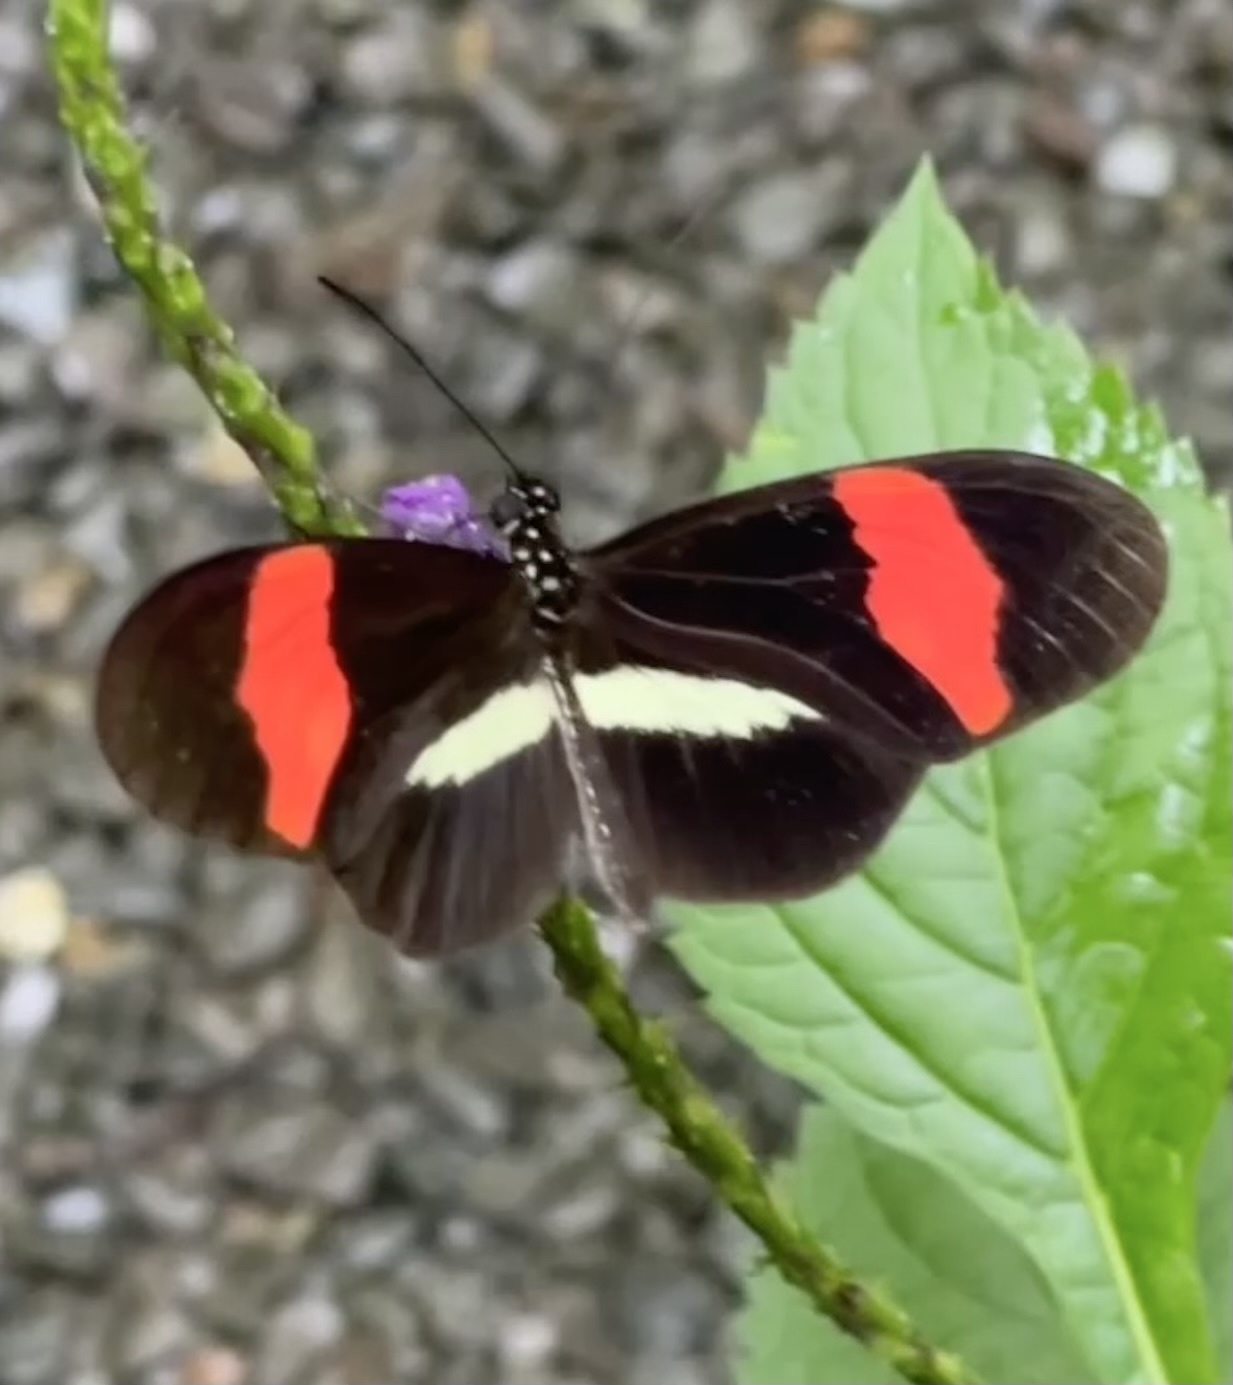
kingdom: Animalia
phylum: Arthropoda
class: Insecta
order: Lepidoptera
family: Nymphalidae
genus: Tirumala
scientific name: Tirumala petiverana
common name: Blue monarch
